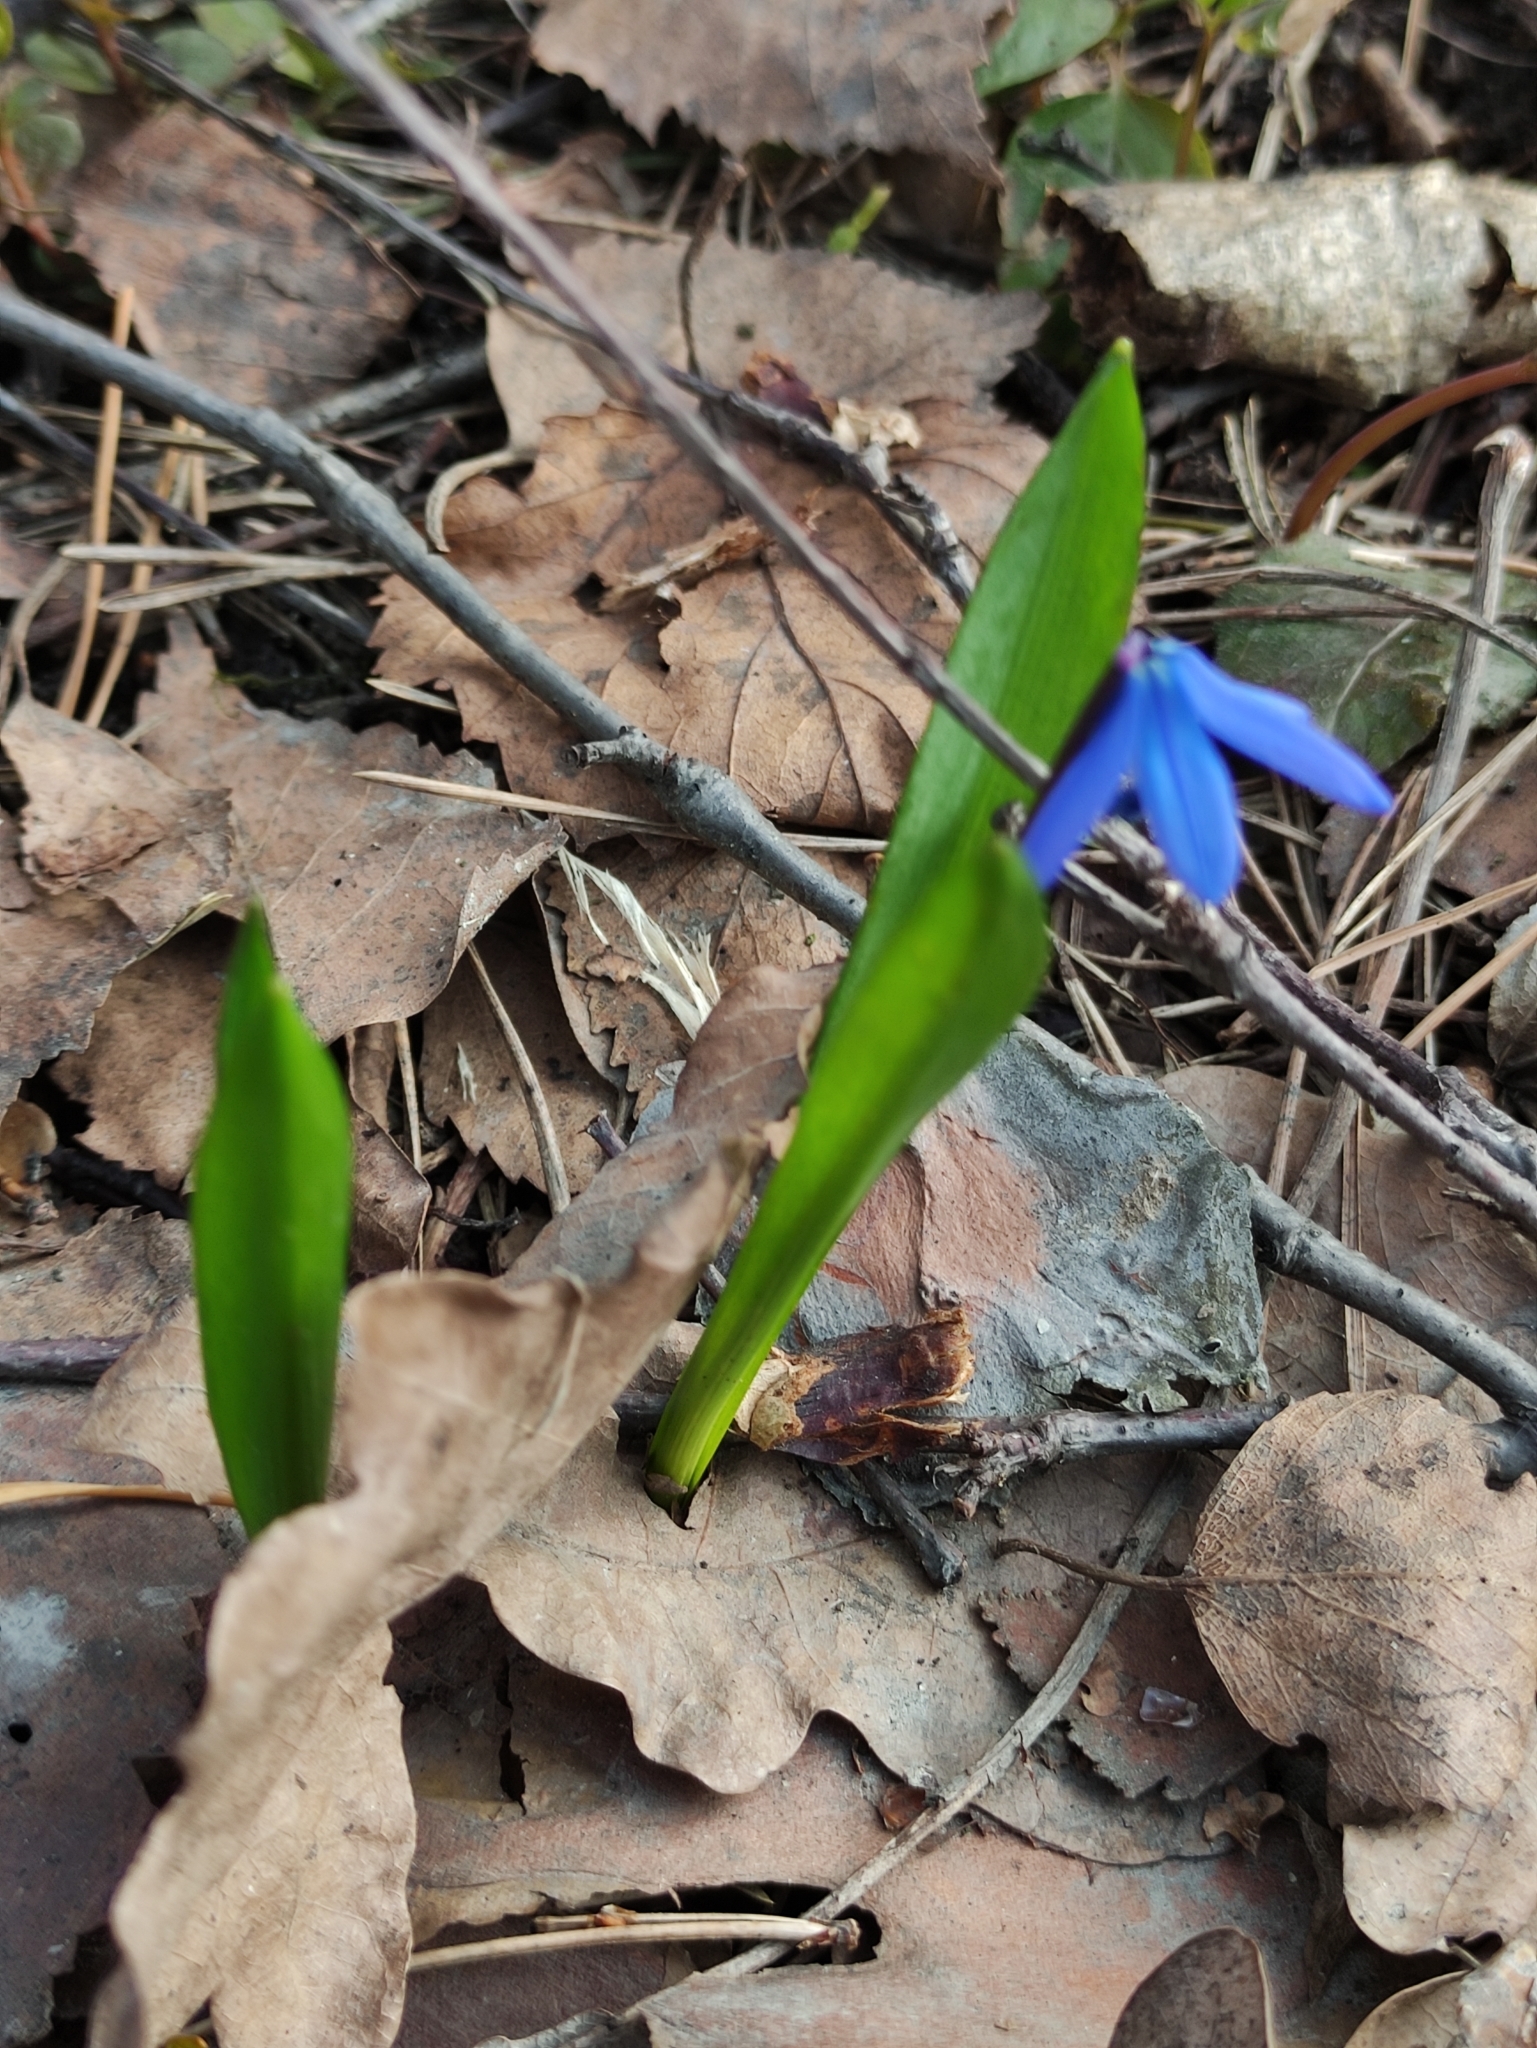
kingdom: Plantae
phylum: Tracheophyta
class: Liliopsida
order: Asparagales
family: Asparagaceae
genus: Scilla
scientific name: Scilla siberica
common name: Siberian squill
